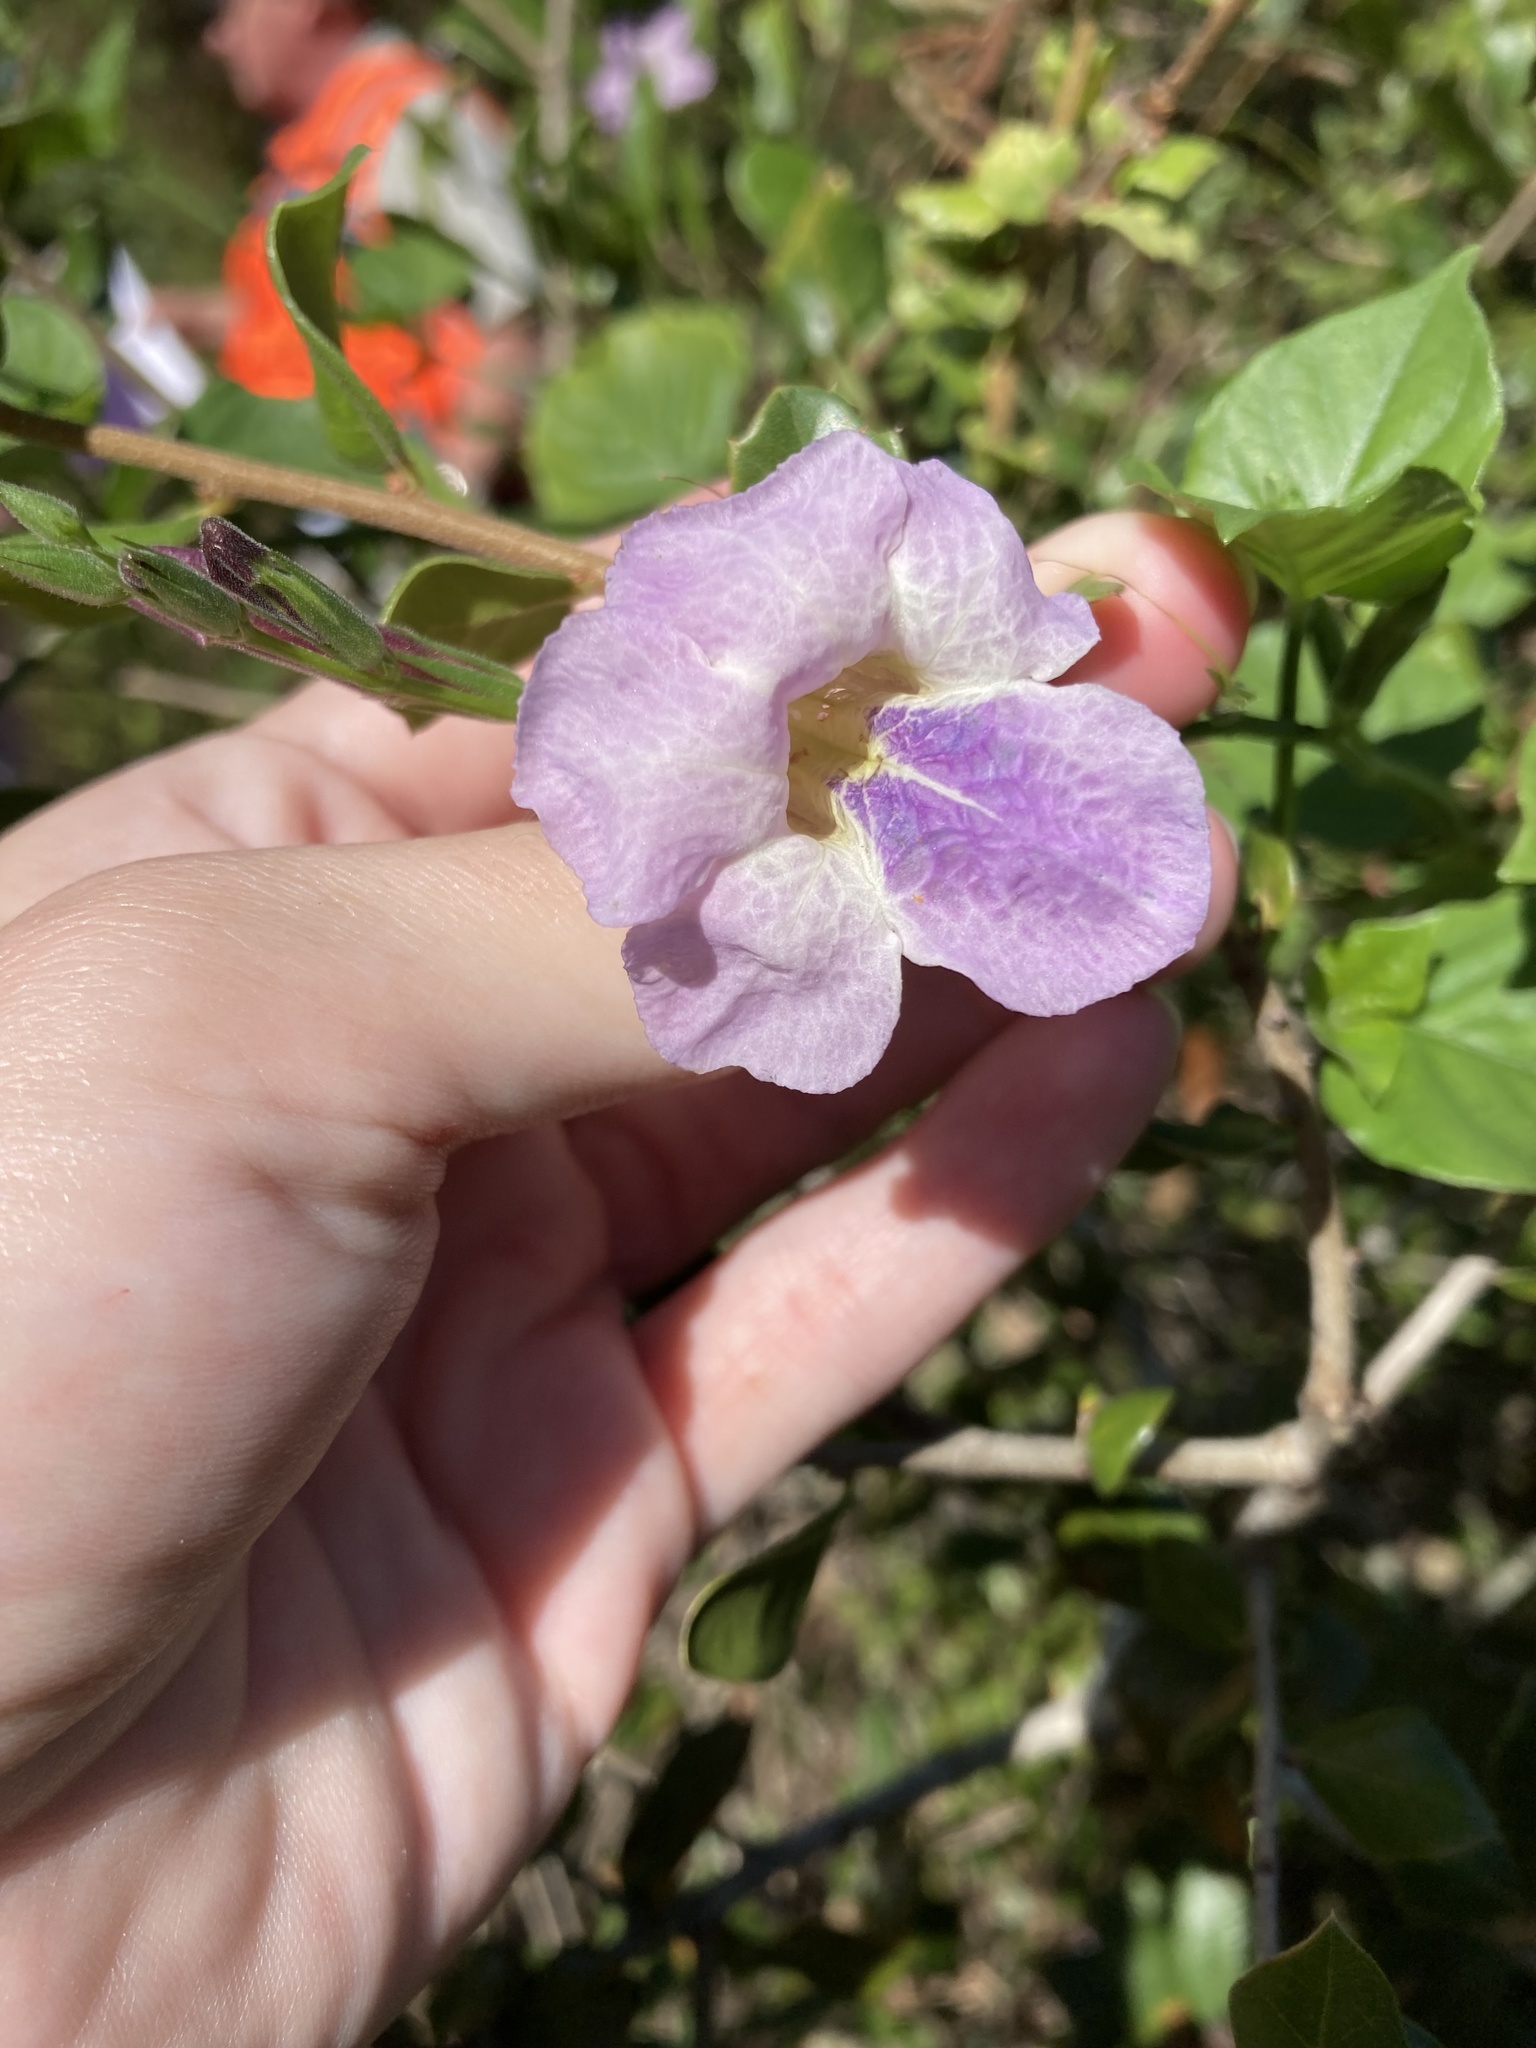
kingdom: Plantae
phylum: Tracheophyta
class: Magnoliopsida
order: Lamiales
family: Acanthaceae
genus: Asystasia
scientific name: Asystasia gangetica
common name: Chinese violet
